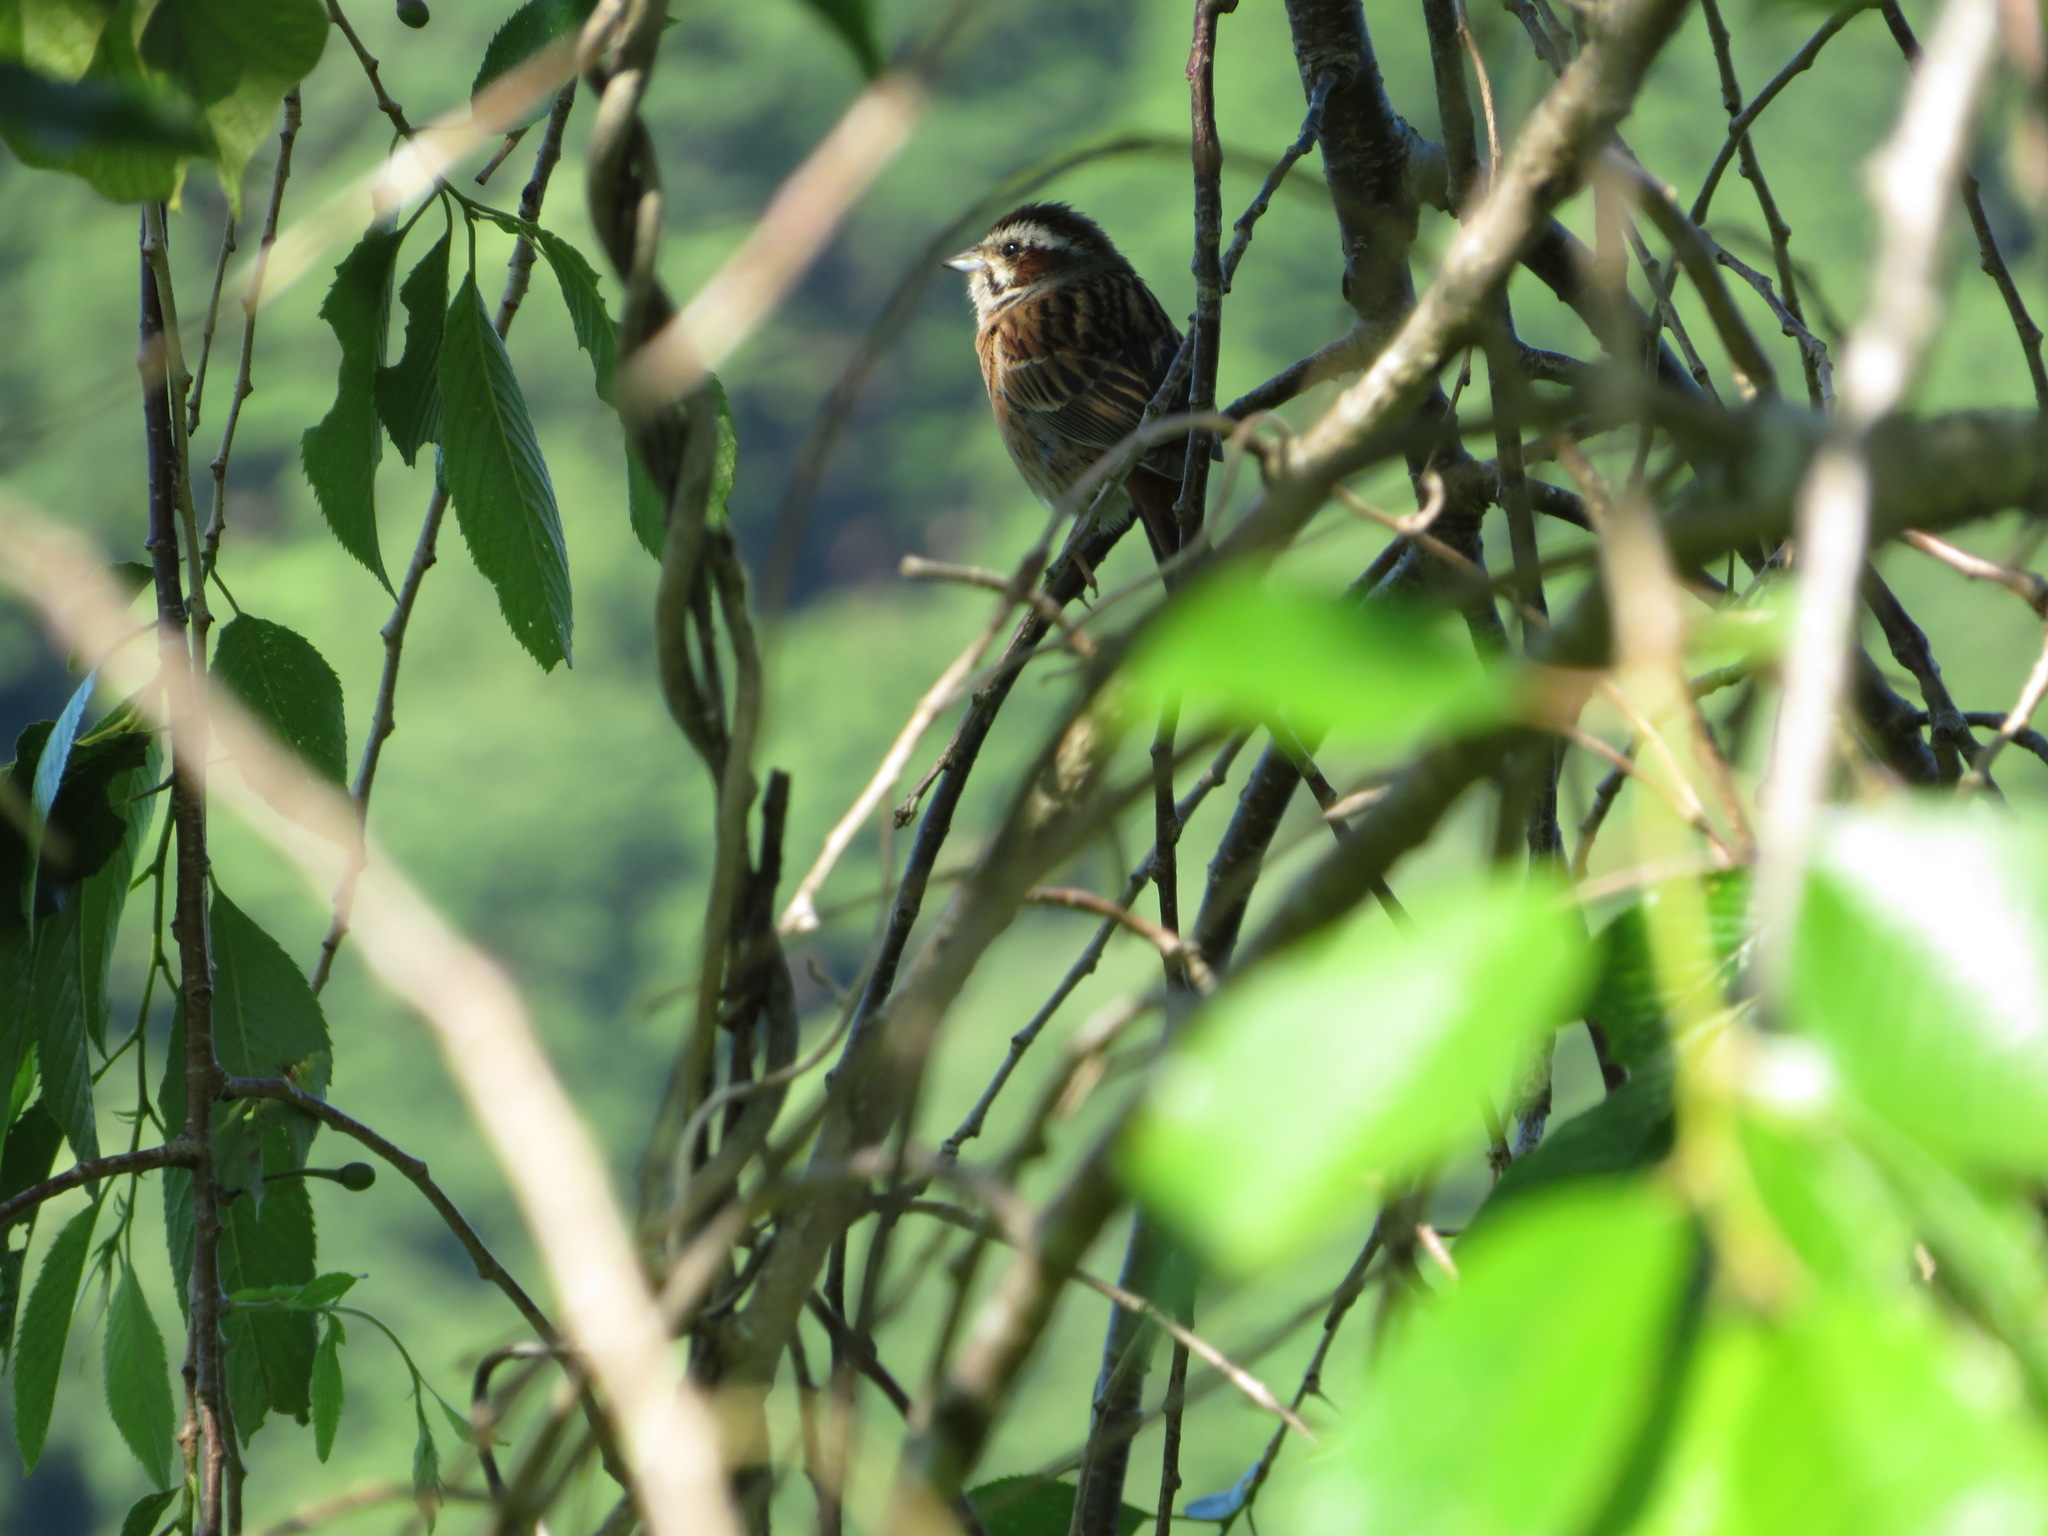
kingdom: Animalia
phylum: Chordata
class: Aves
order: Passeriformes
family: Emberizidae
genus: Emberiza
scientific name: Emberiza cioides
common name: Meadow bunting
